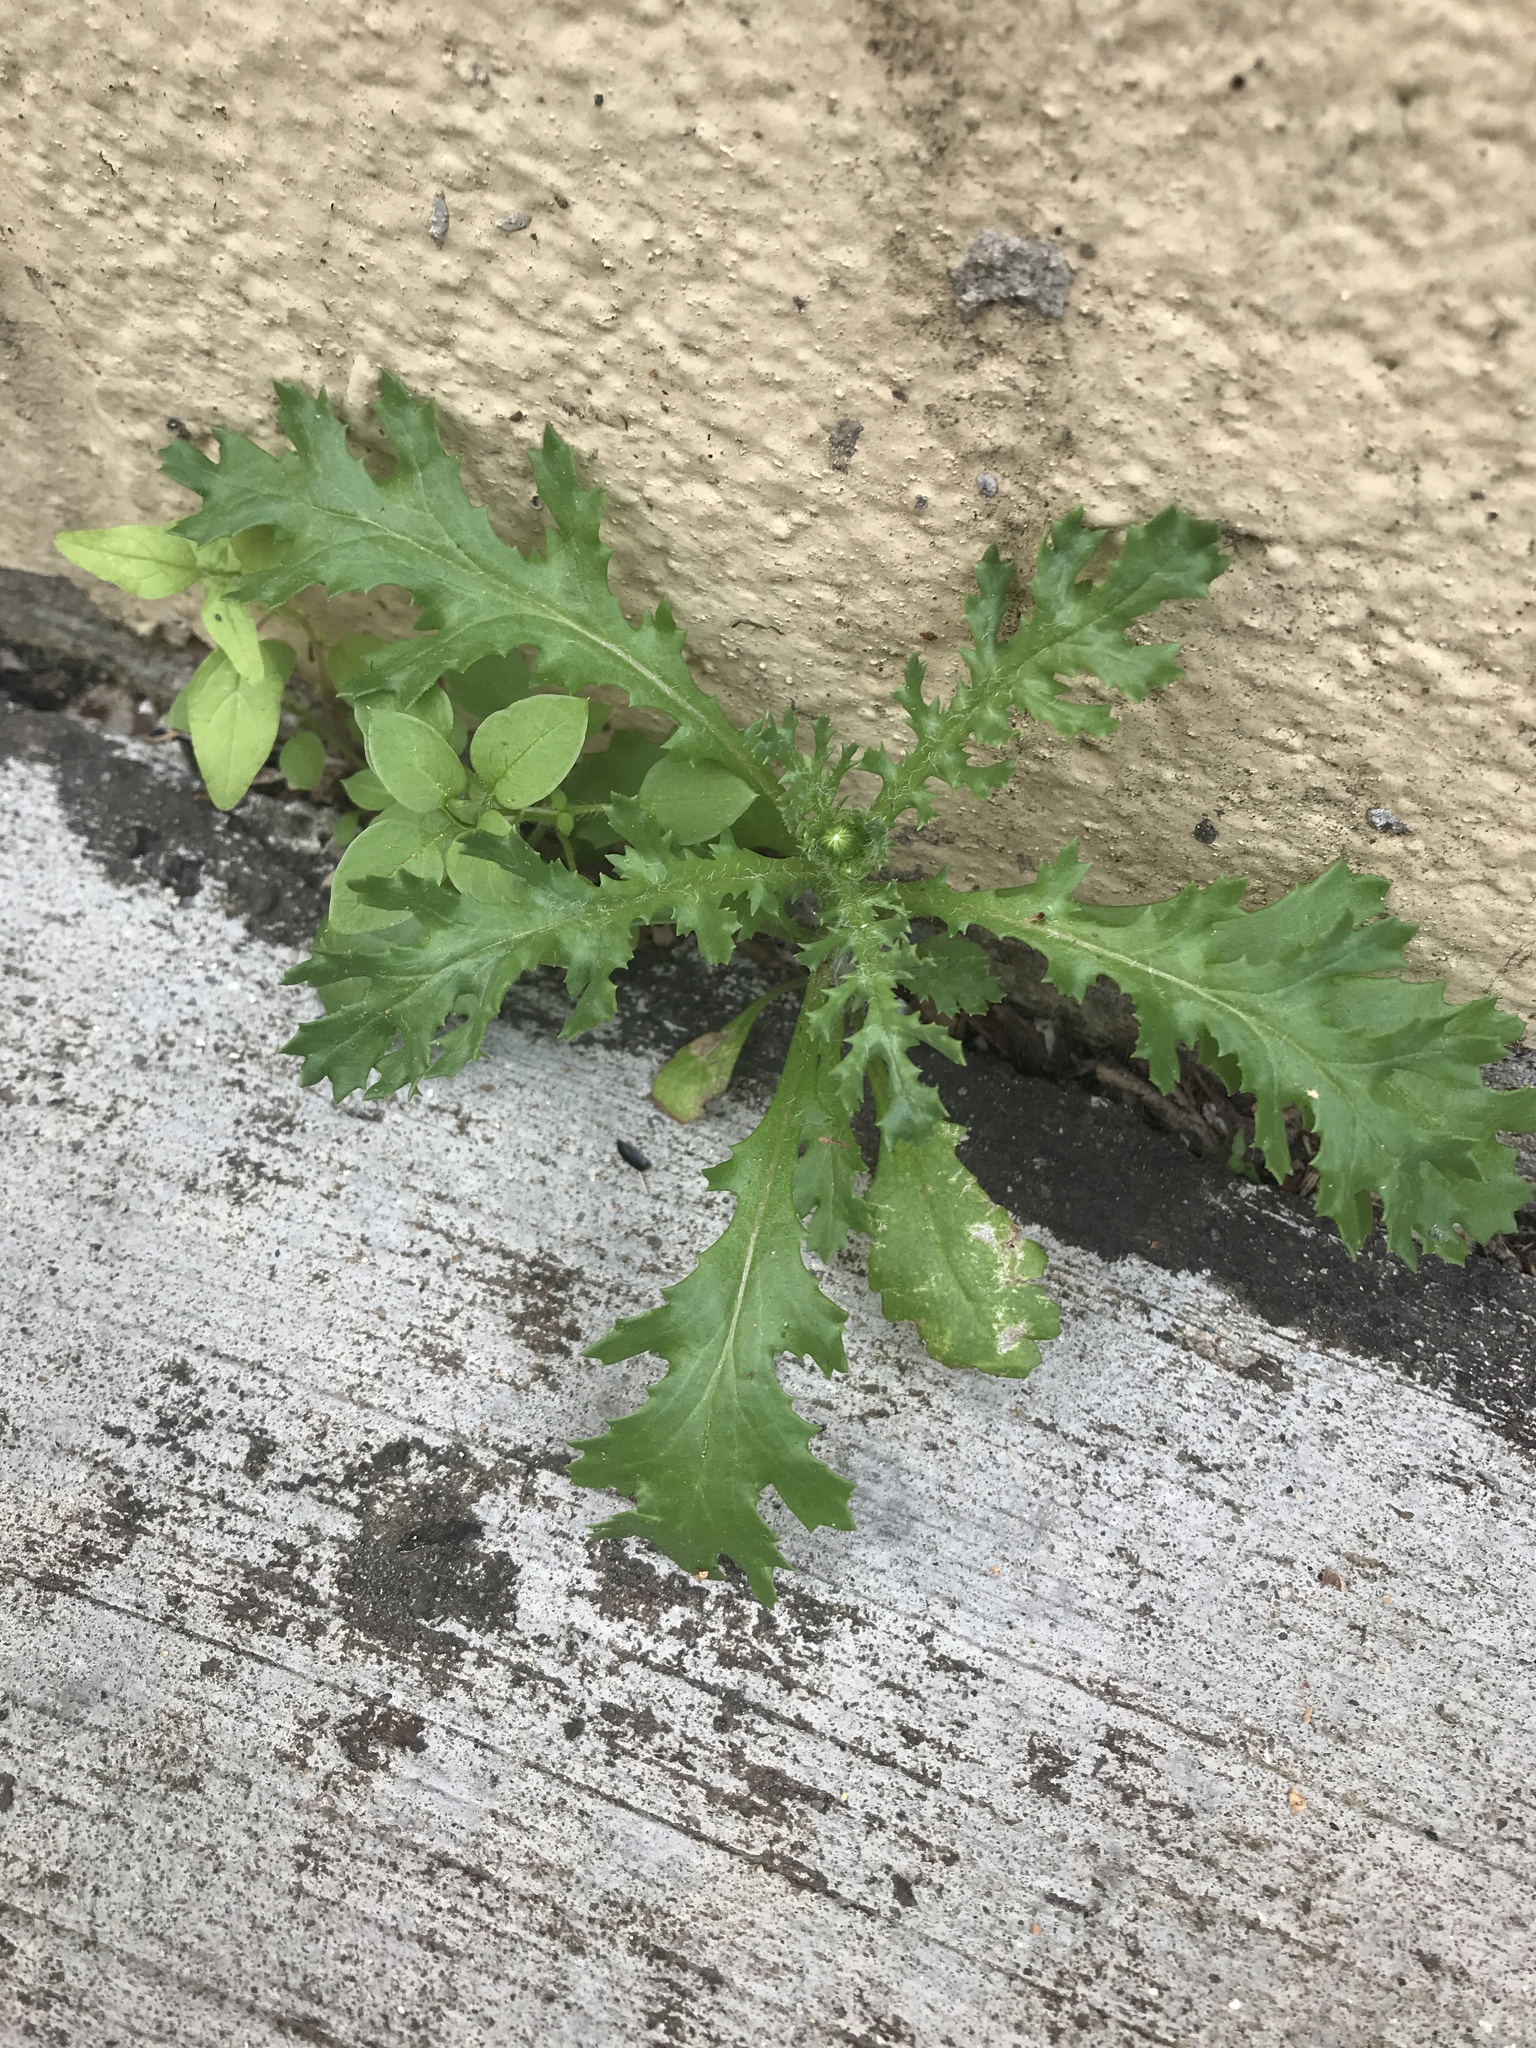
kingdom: Plantae
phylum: Tracheophyta
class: Magnoliopsida
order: Asterales
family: Asteraceae
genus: Senecio
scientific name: Senecio vulgaris
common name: Old-man-in-the-spring
